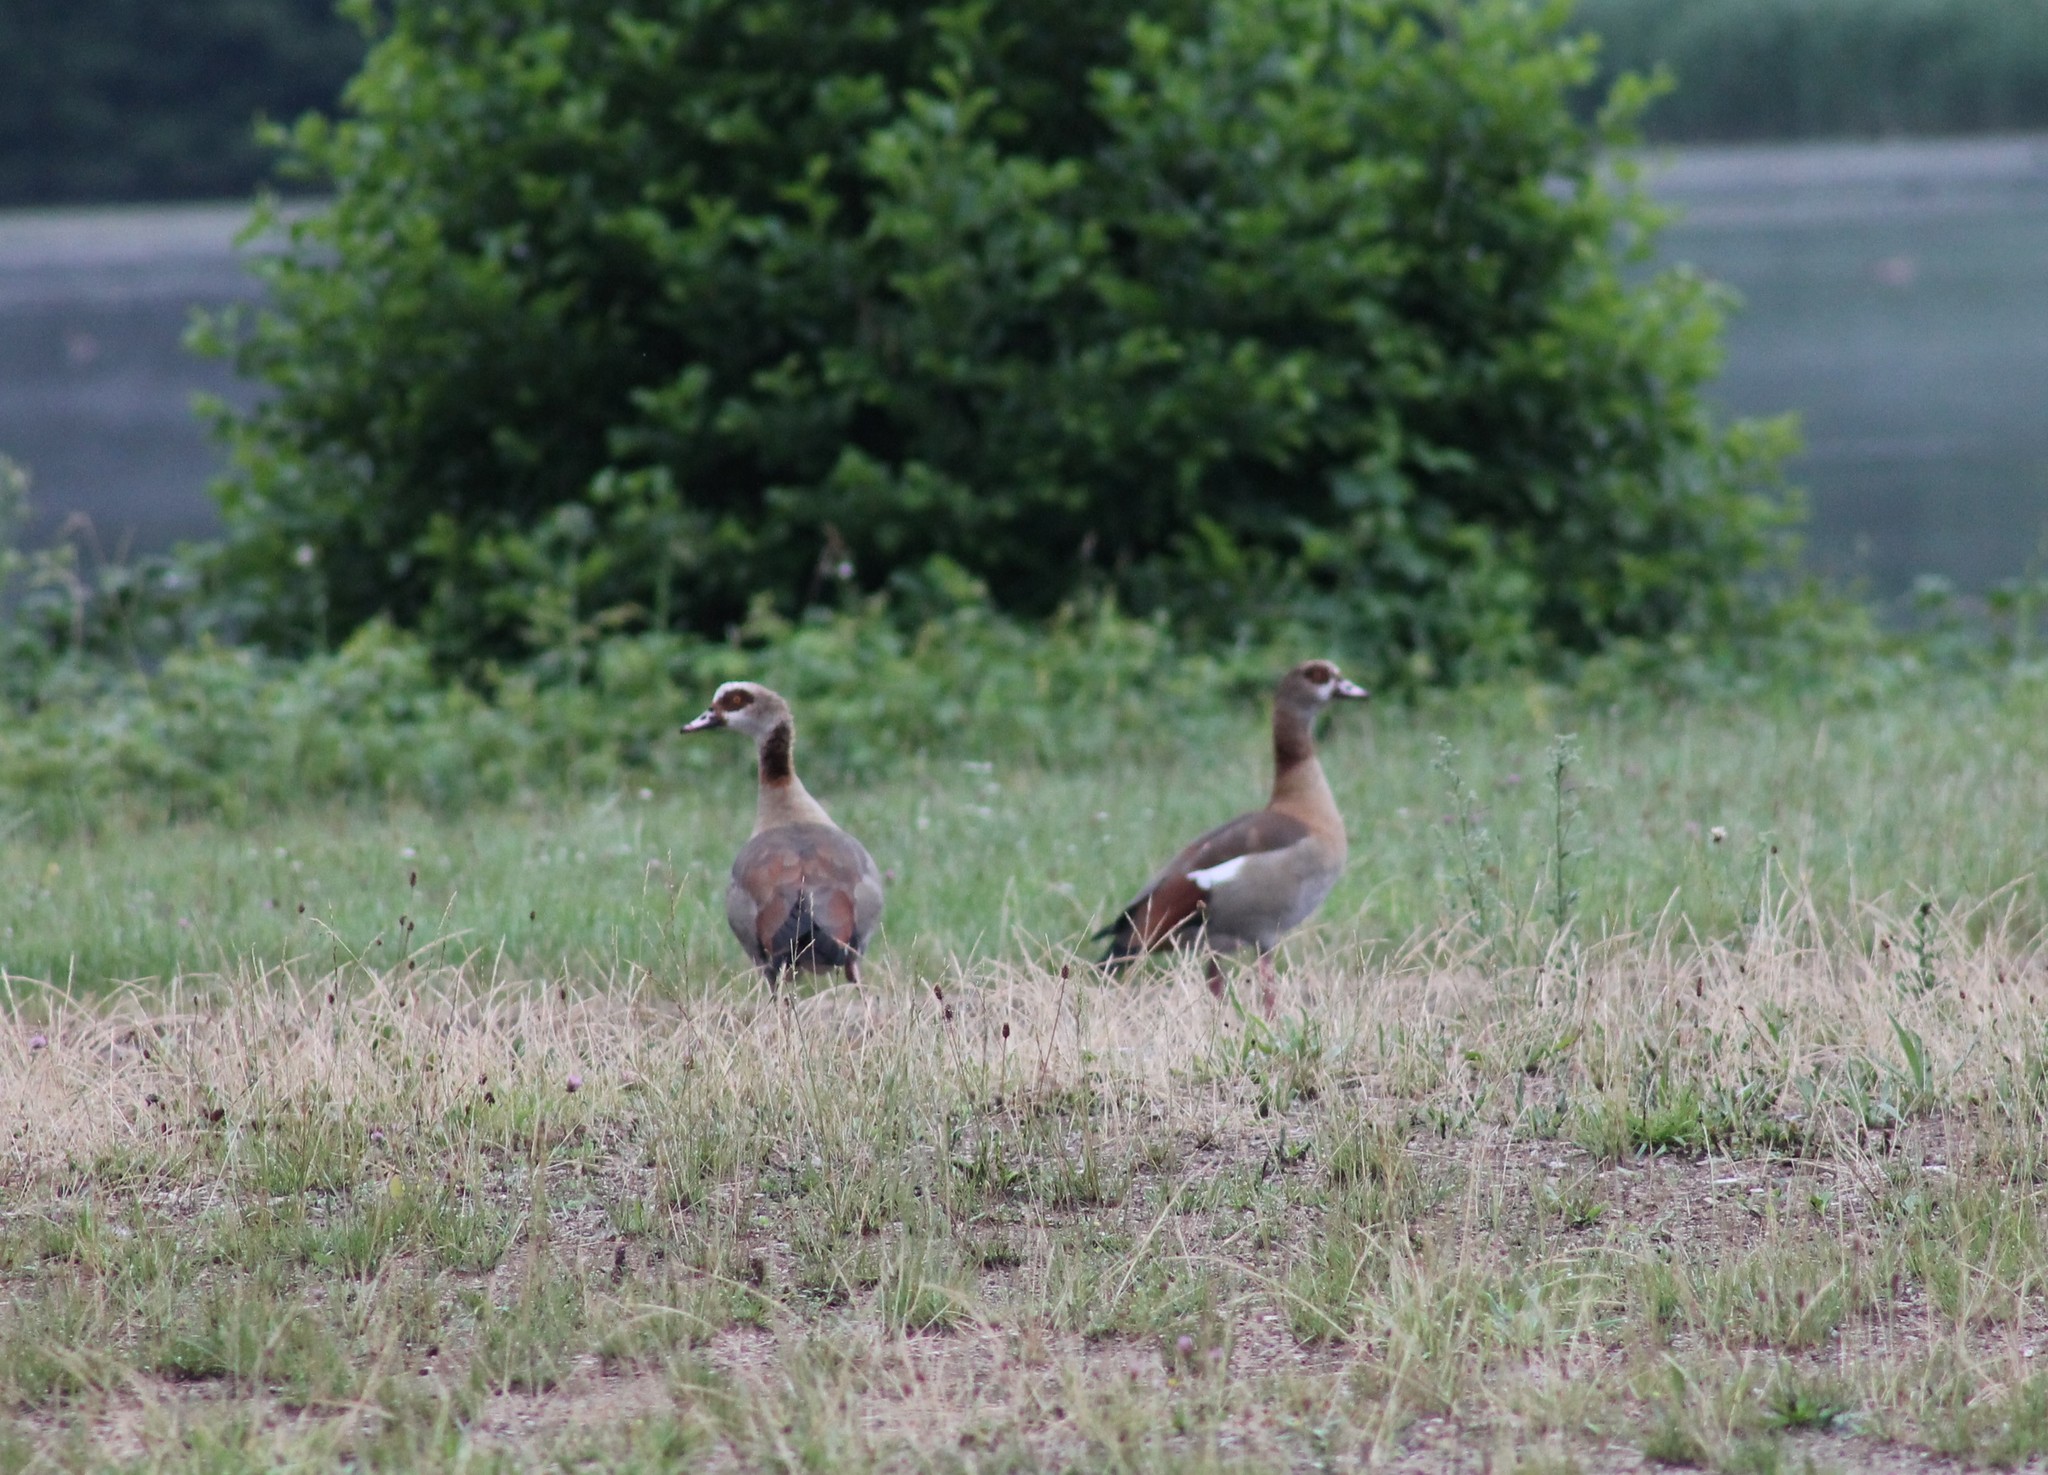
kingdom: Animalia
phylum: Chordata
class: Aves
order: Anseriformes
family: Anatidae
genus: Alopochen
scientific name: Alopochen aegyptiaca
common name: Egyptian goose
